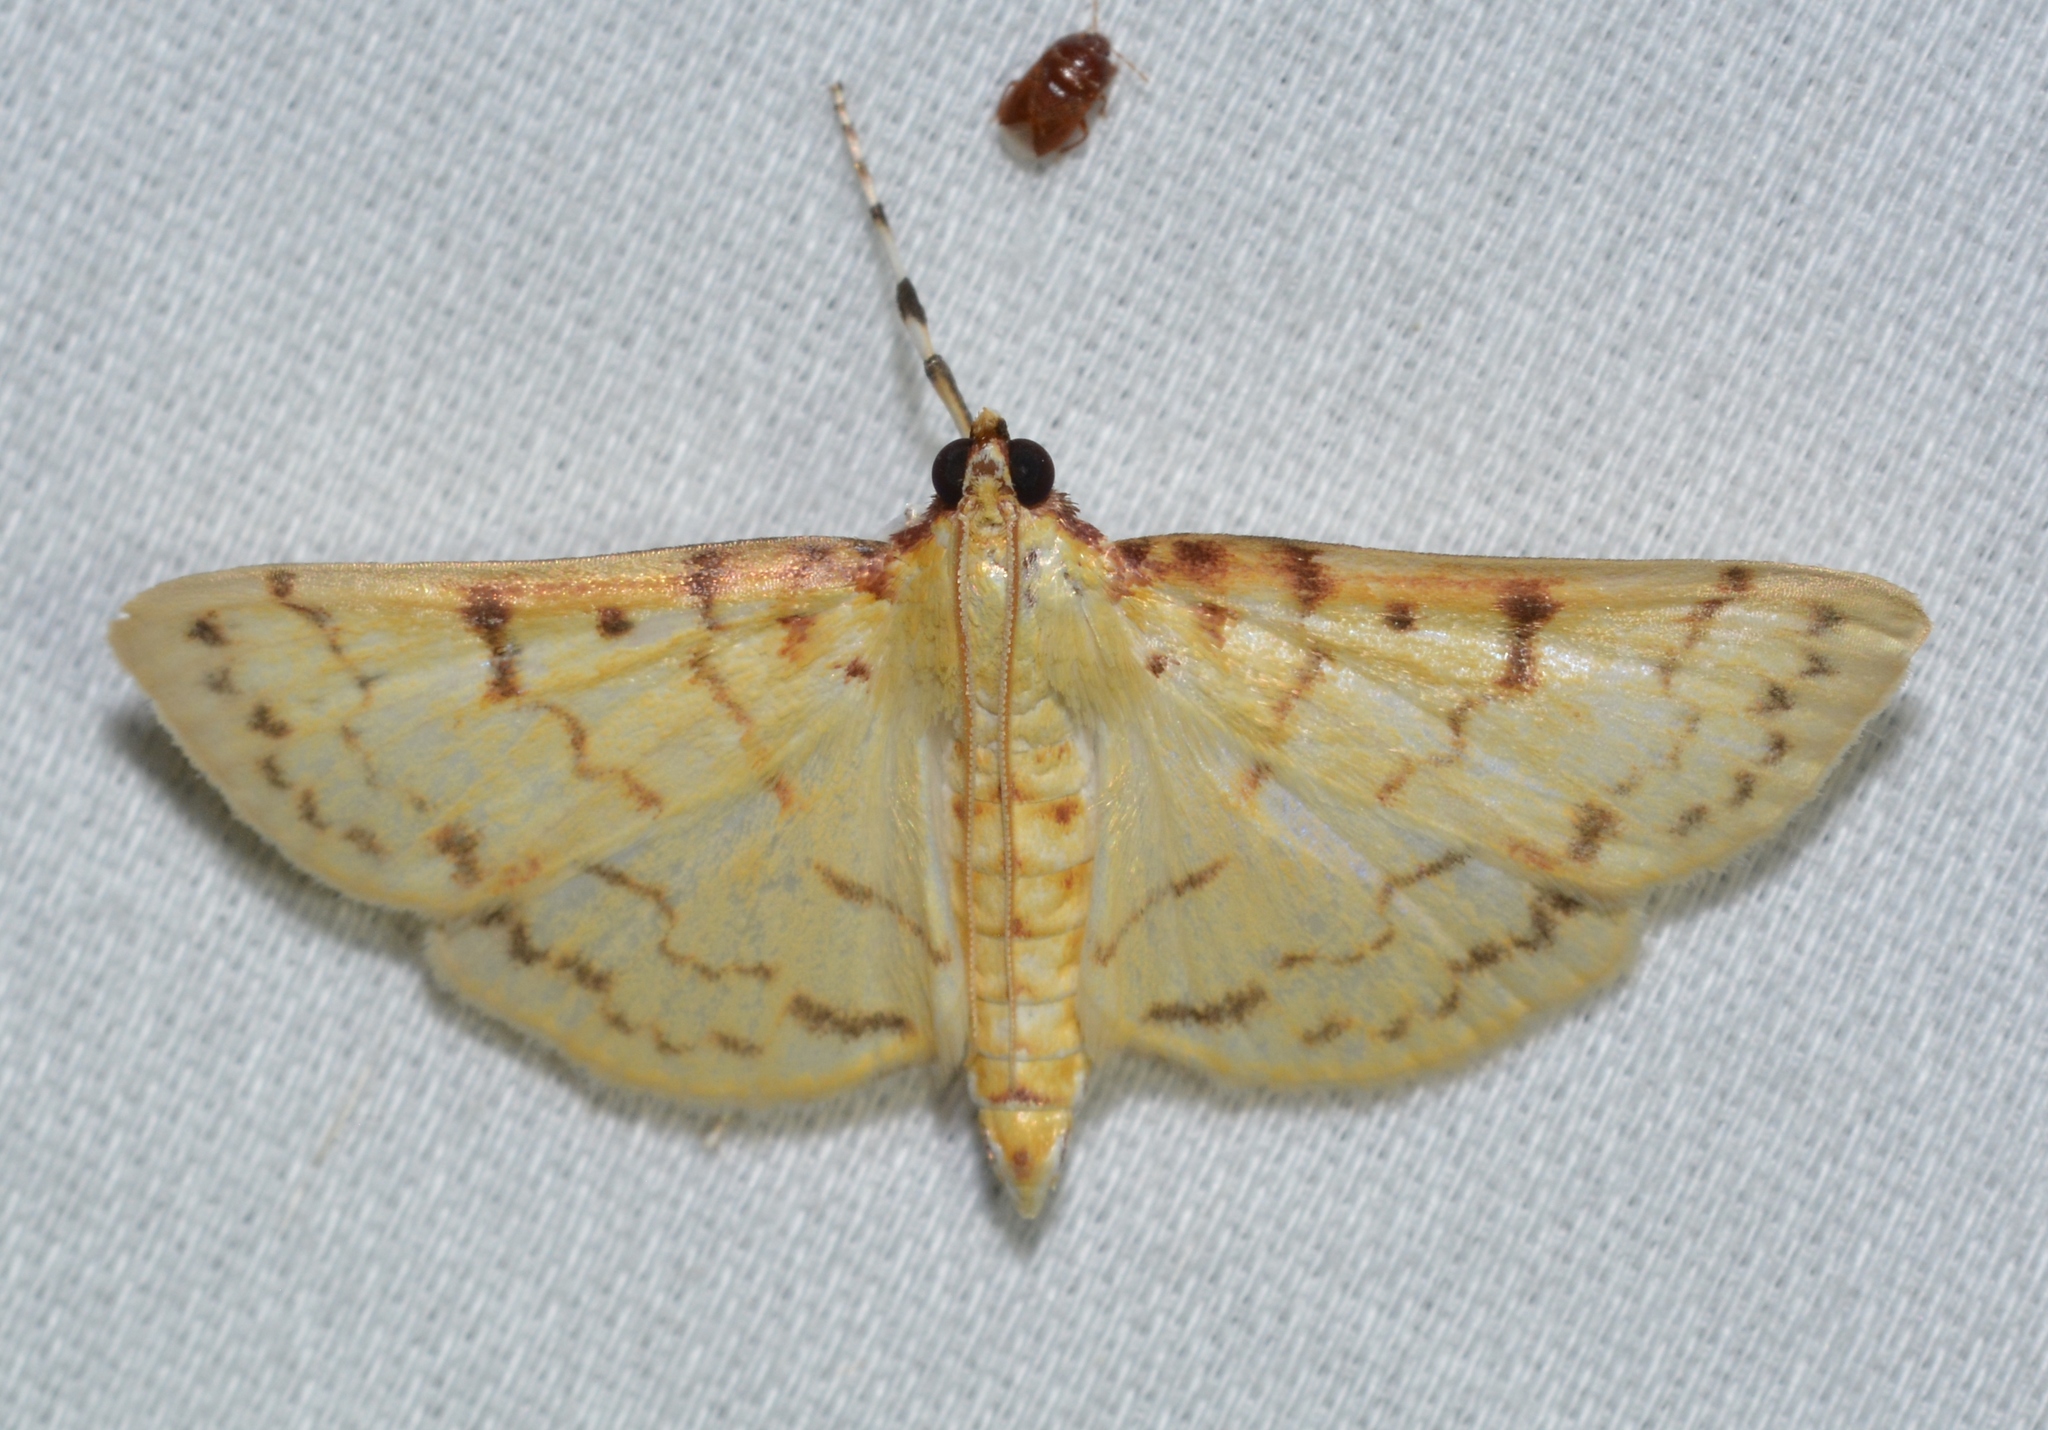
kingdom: Animalia
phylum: Arthropoda
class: Insecta
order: Lepidoptera
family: Crambidae
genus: Polygrammodes
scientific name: Polygrammodes flavidalis
